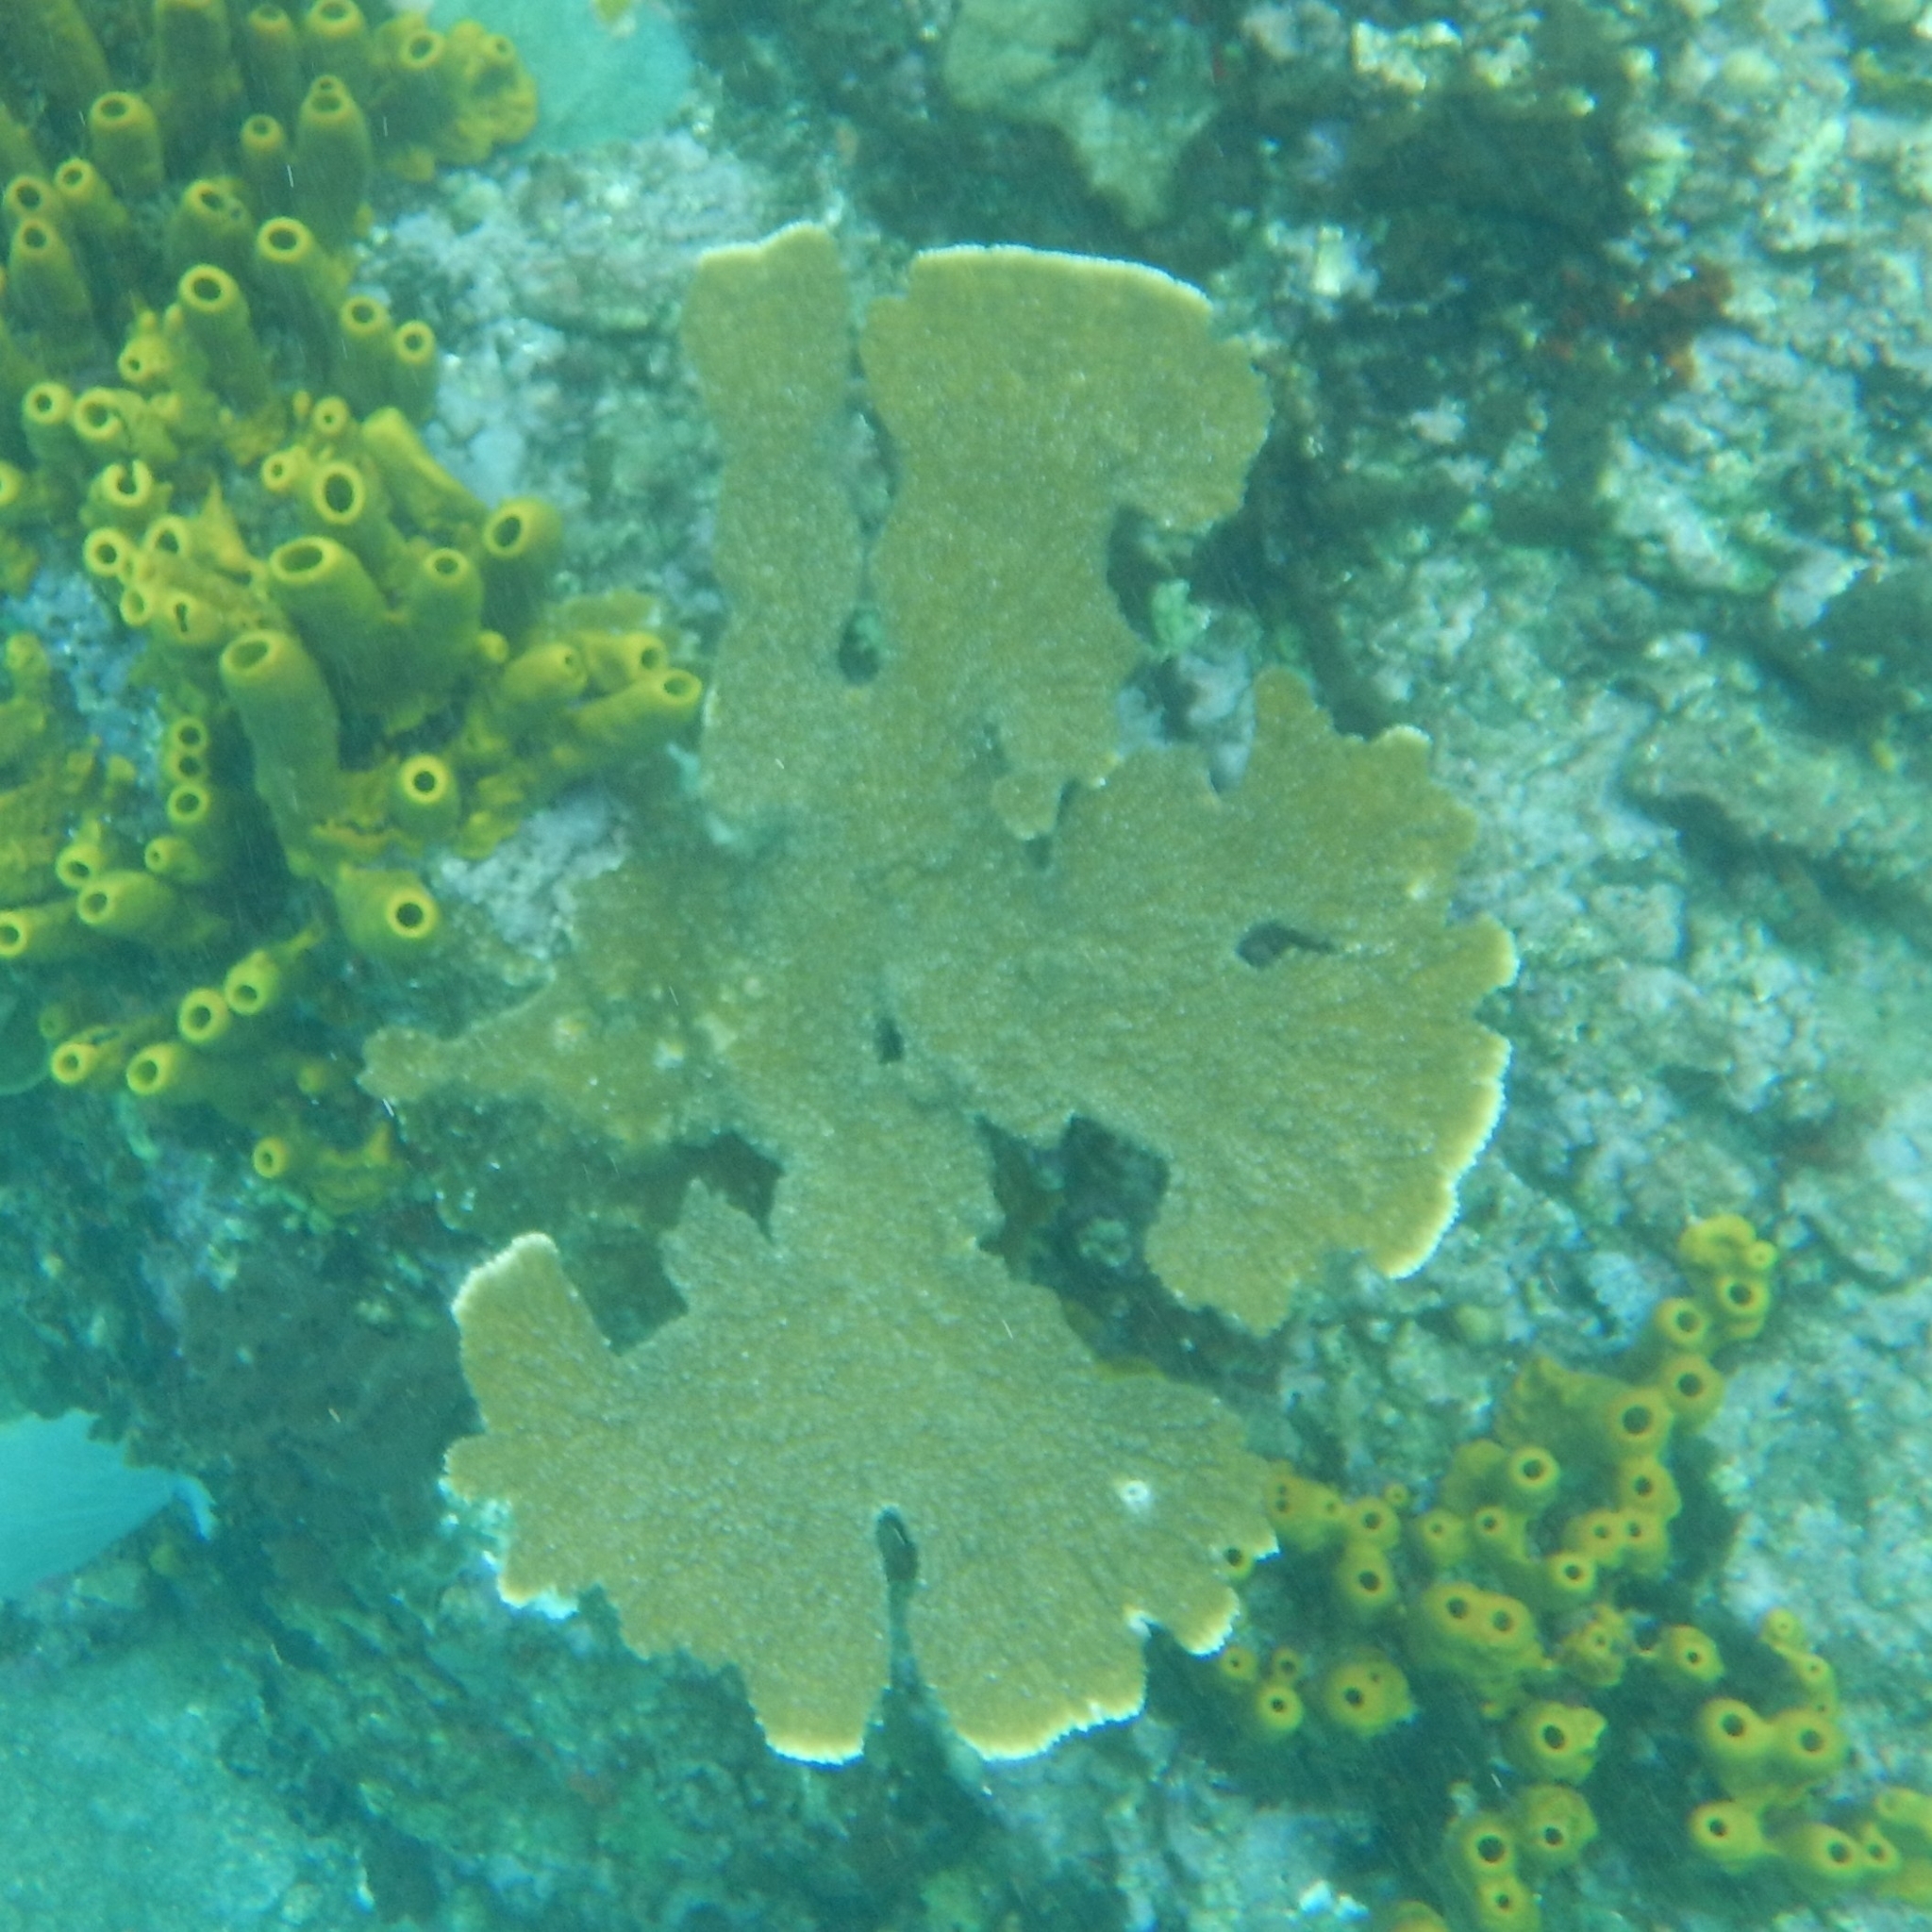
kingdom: Animalia
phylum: Cnidaria
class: Anthozoa
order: Scleractinia
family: Acroporidae
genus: Acropora
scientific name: Acropora palmata
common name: Elkhorn coral
